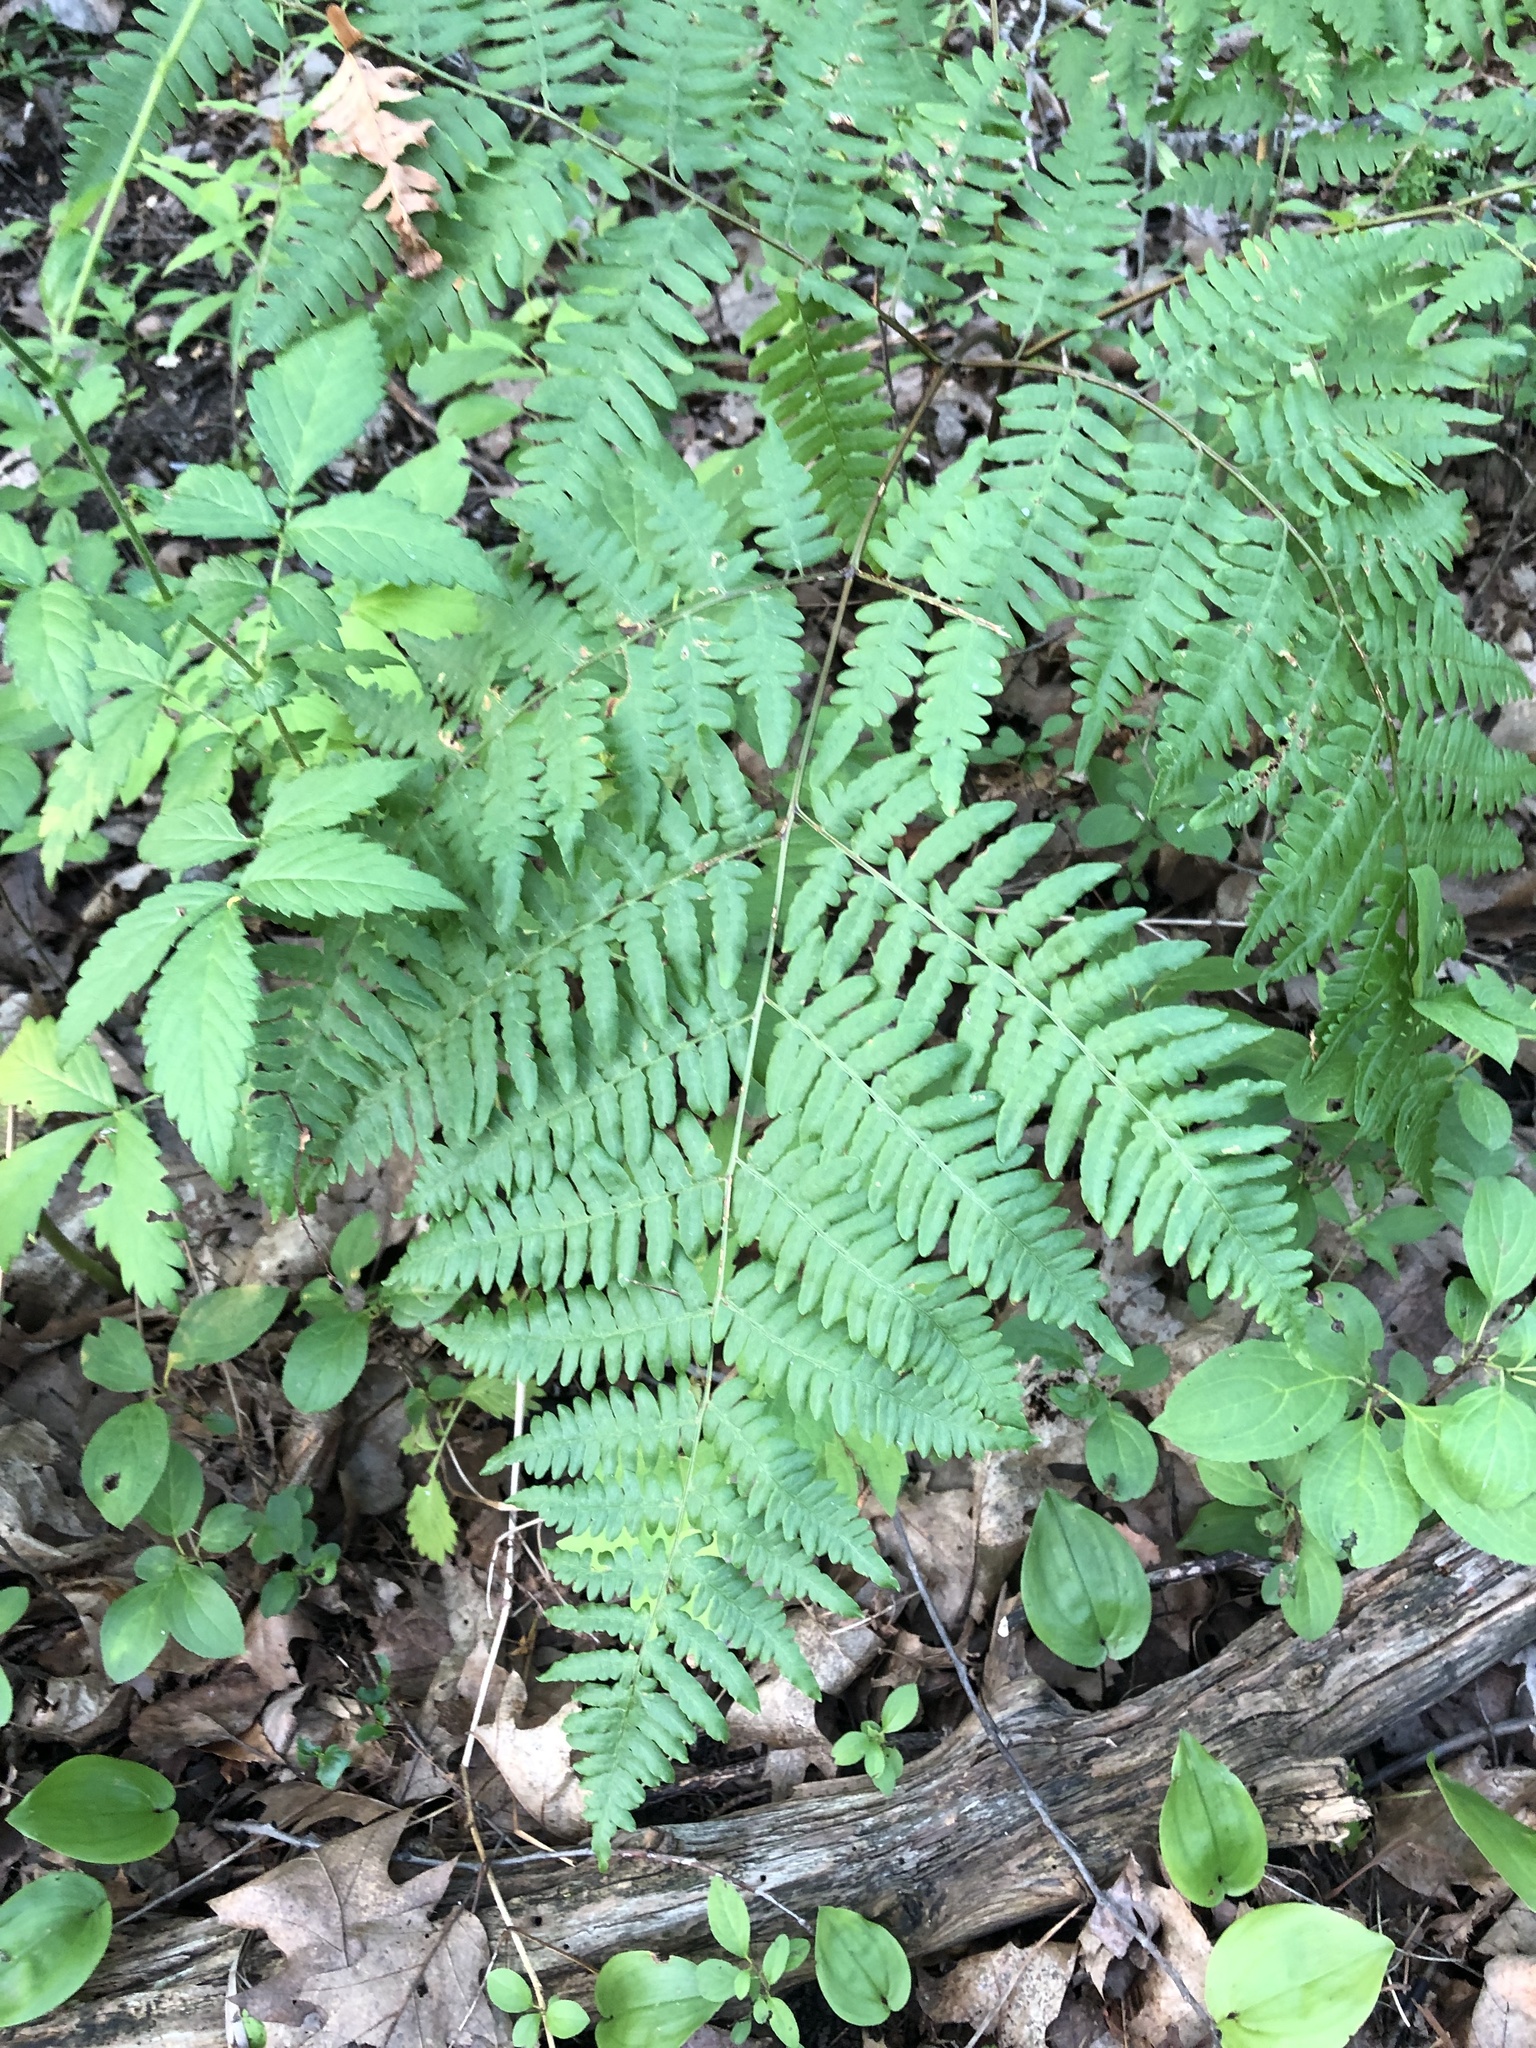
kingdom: Plantae
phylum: Tracheophyta
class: Polypodiopsida
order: Polypodiales
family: Dennstaedtiaceae
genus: Pteridium
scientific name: Pteridium aquilinum
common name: Bracken
